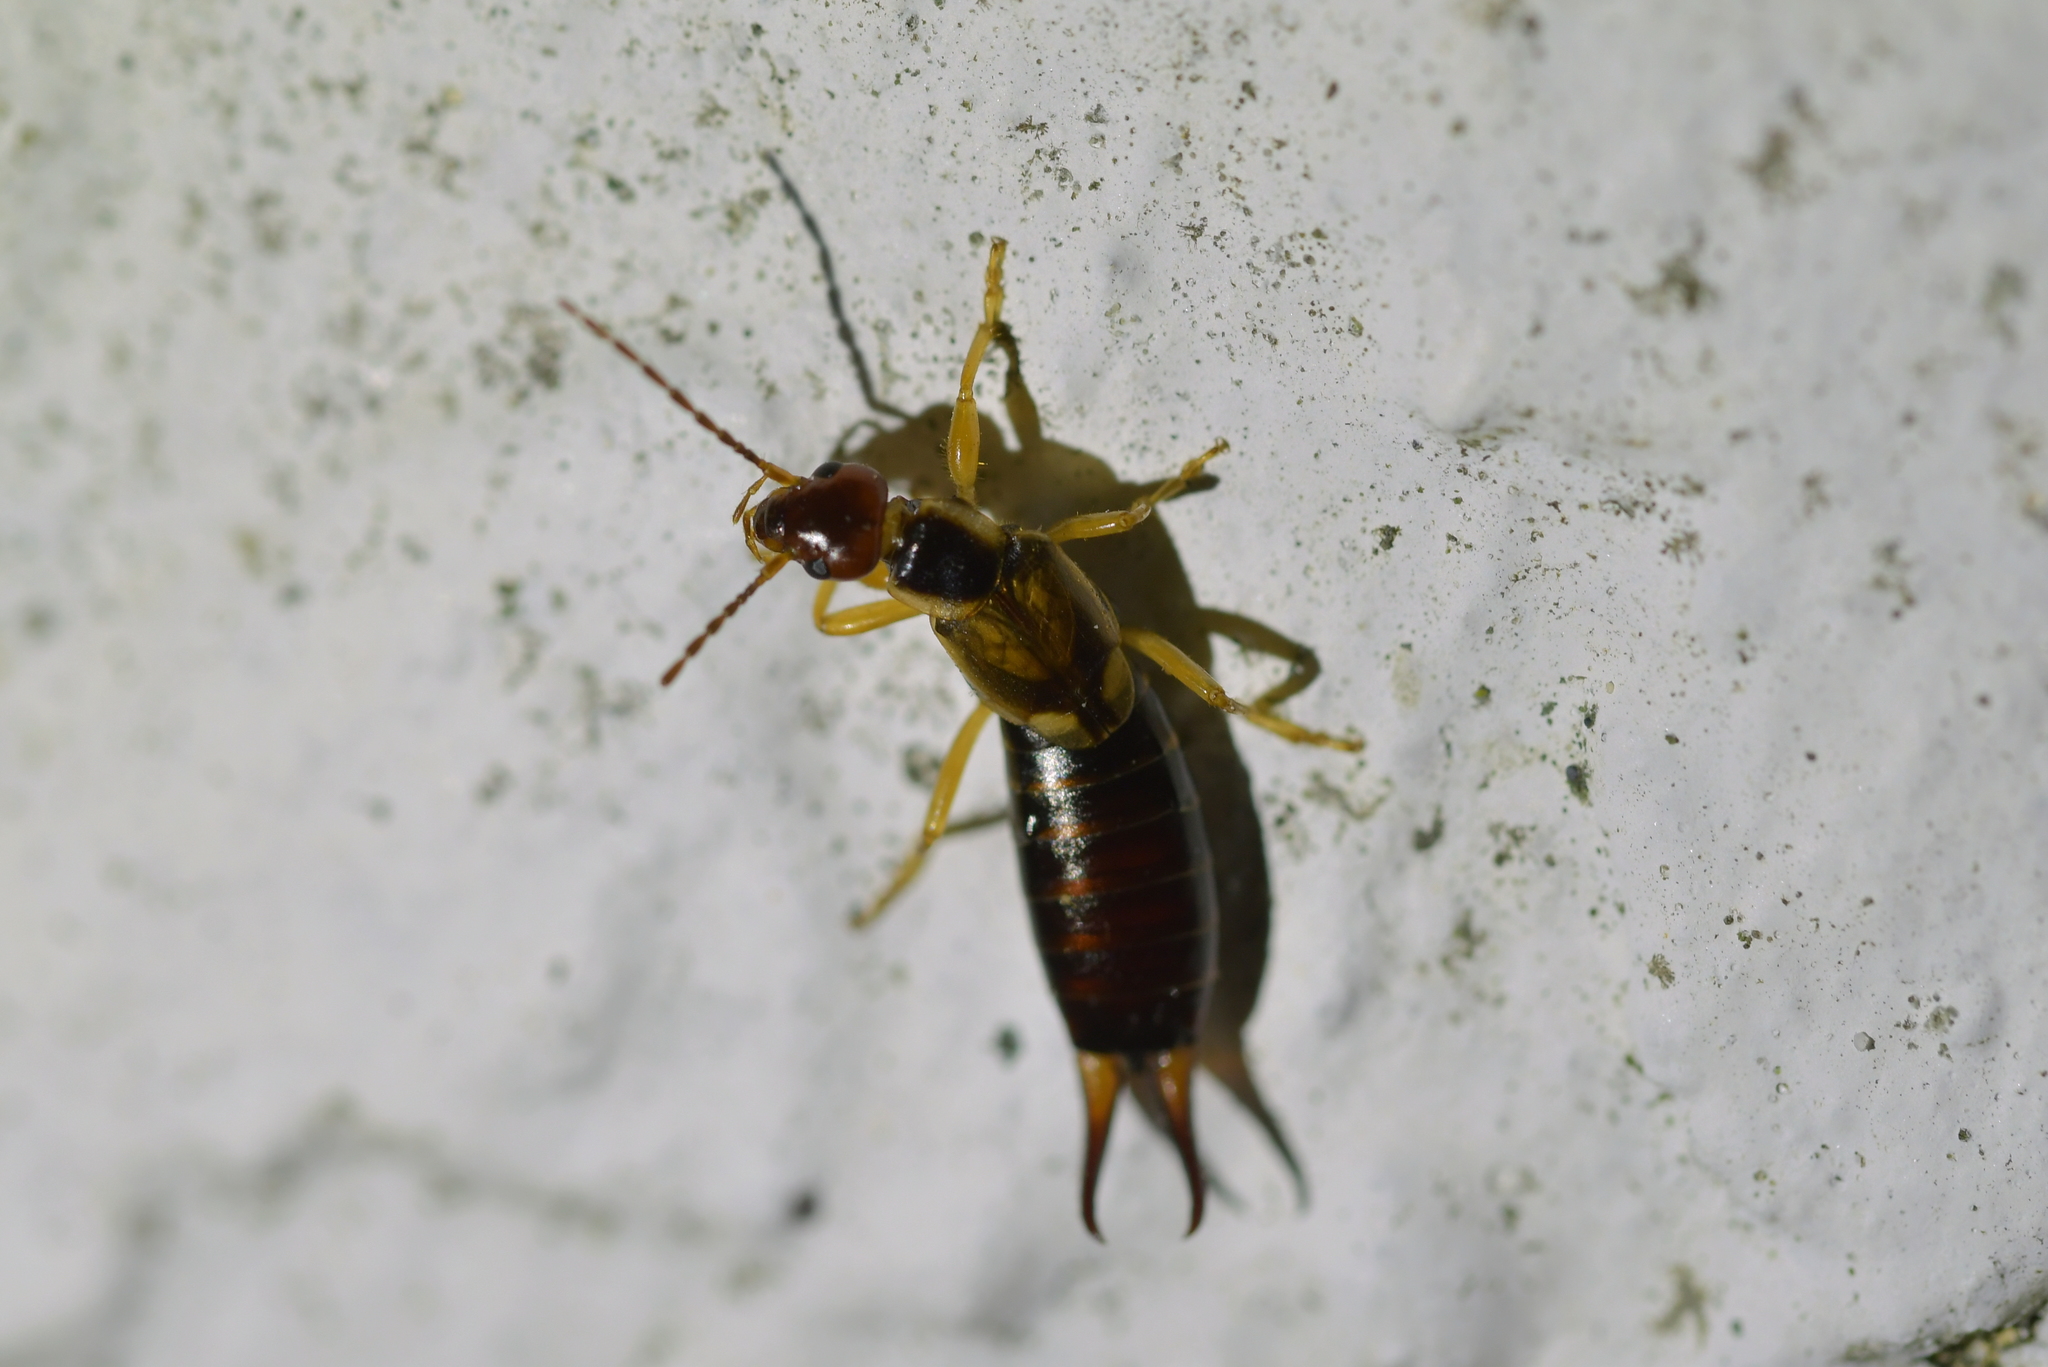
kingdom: Animalia
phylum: Arthropoda
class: Insecta
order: Dermaptera
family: Forficulidae
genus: Forficula
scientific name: Forficula
